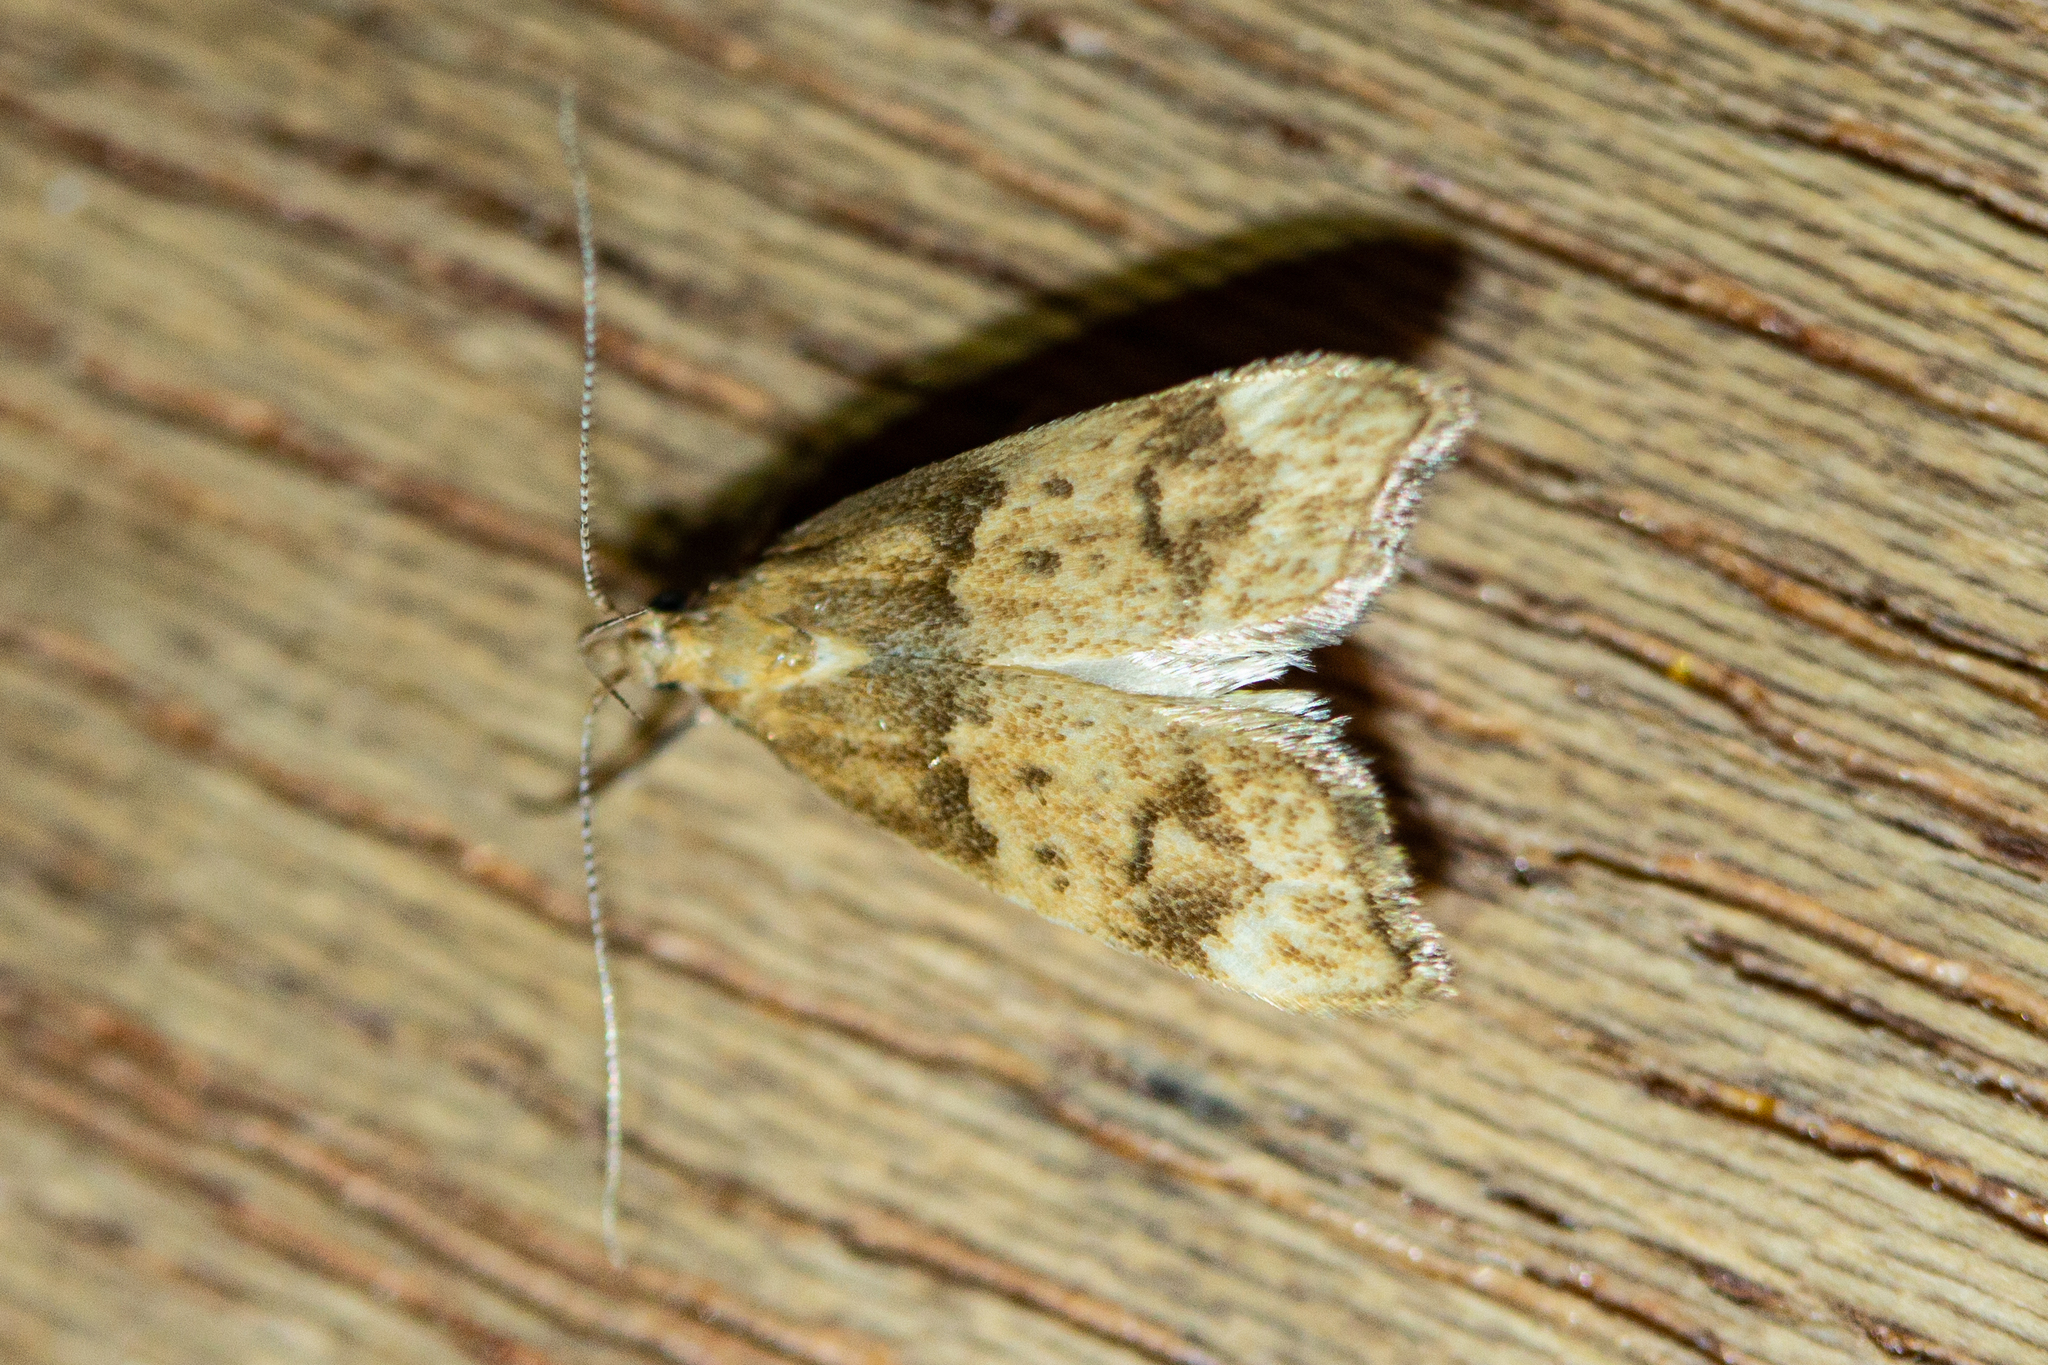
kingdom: Animalia
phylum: Arthropoda
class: Insecta
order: Lepidoptera
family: Oecophoridae
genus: Gymnobathra
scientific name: Gymnobathra hamatella
